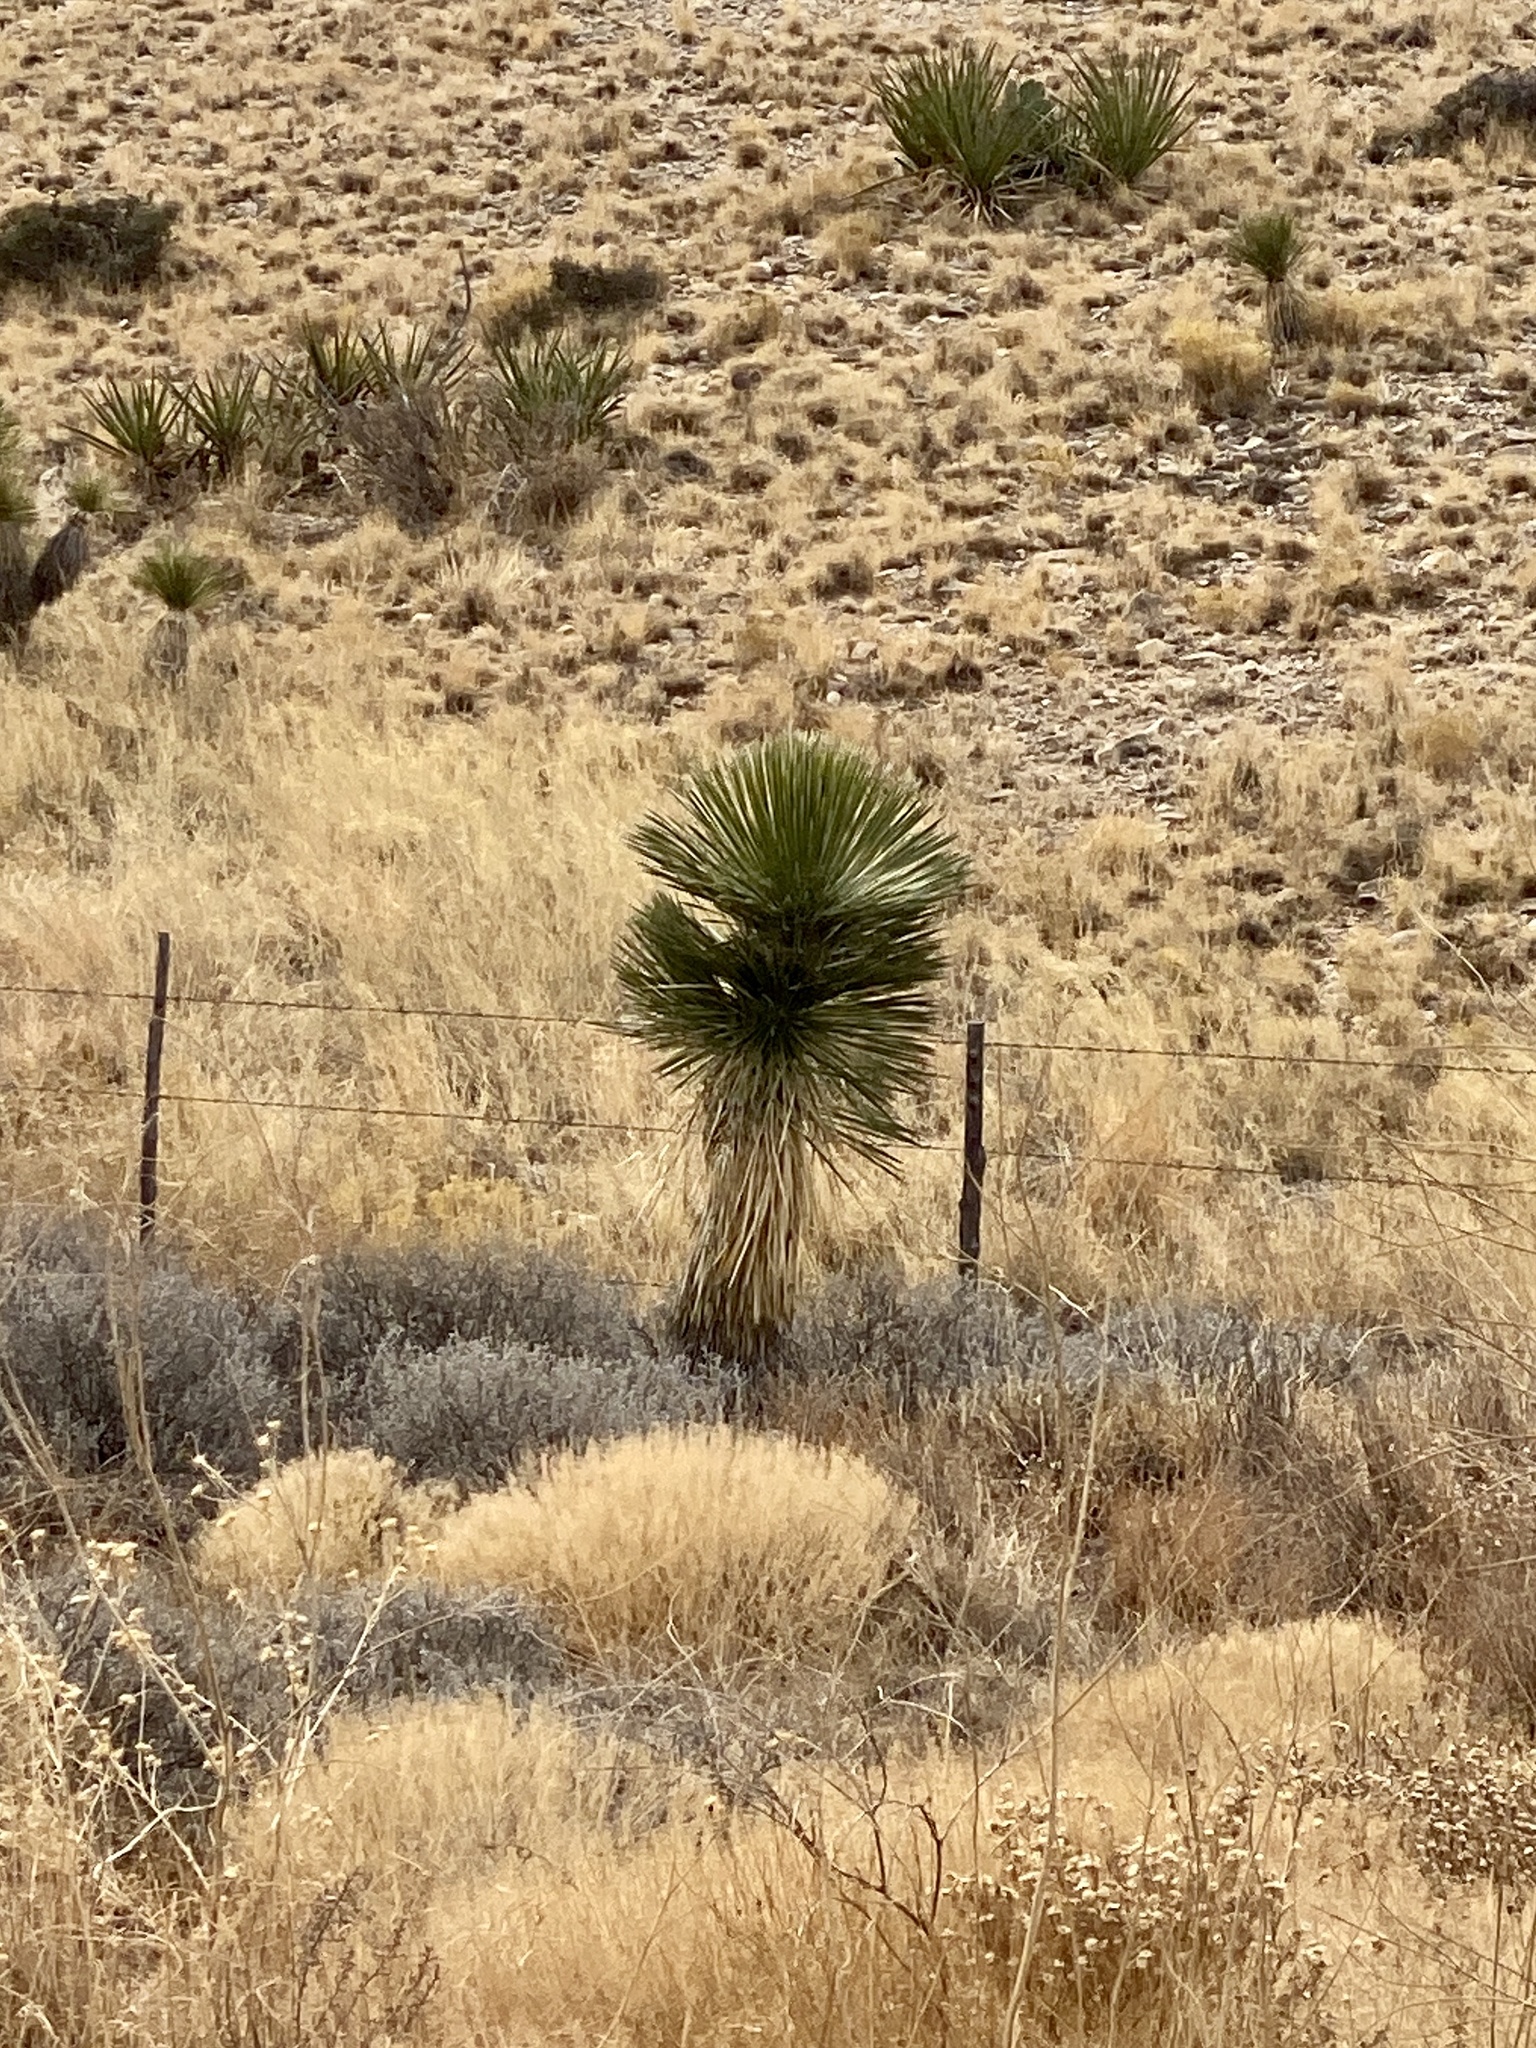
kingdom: Plantae
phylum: Tracheophyta
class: Liliopsida
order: Asparagales
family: Asparagaceae
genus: Yucca
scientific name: Yucca elata
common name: Palmella
